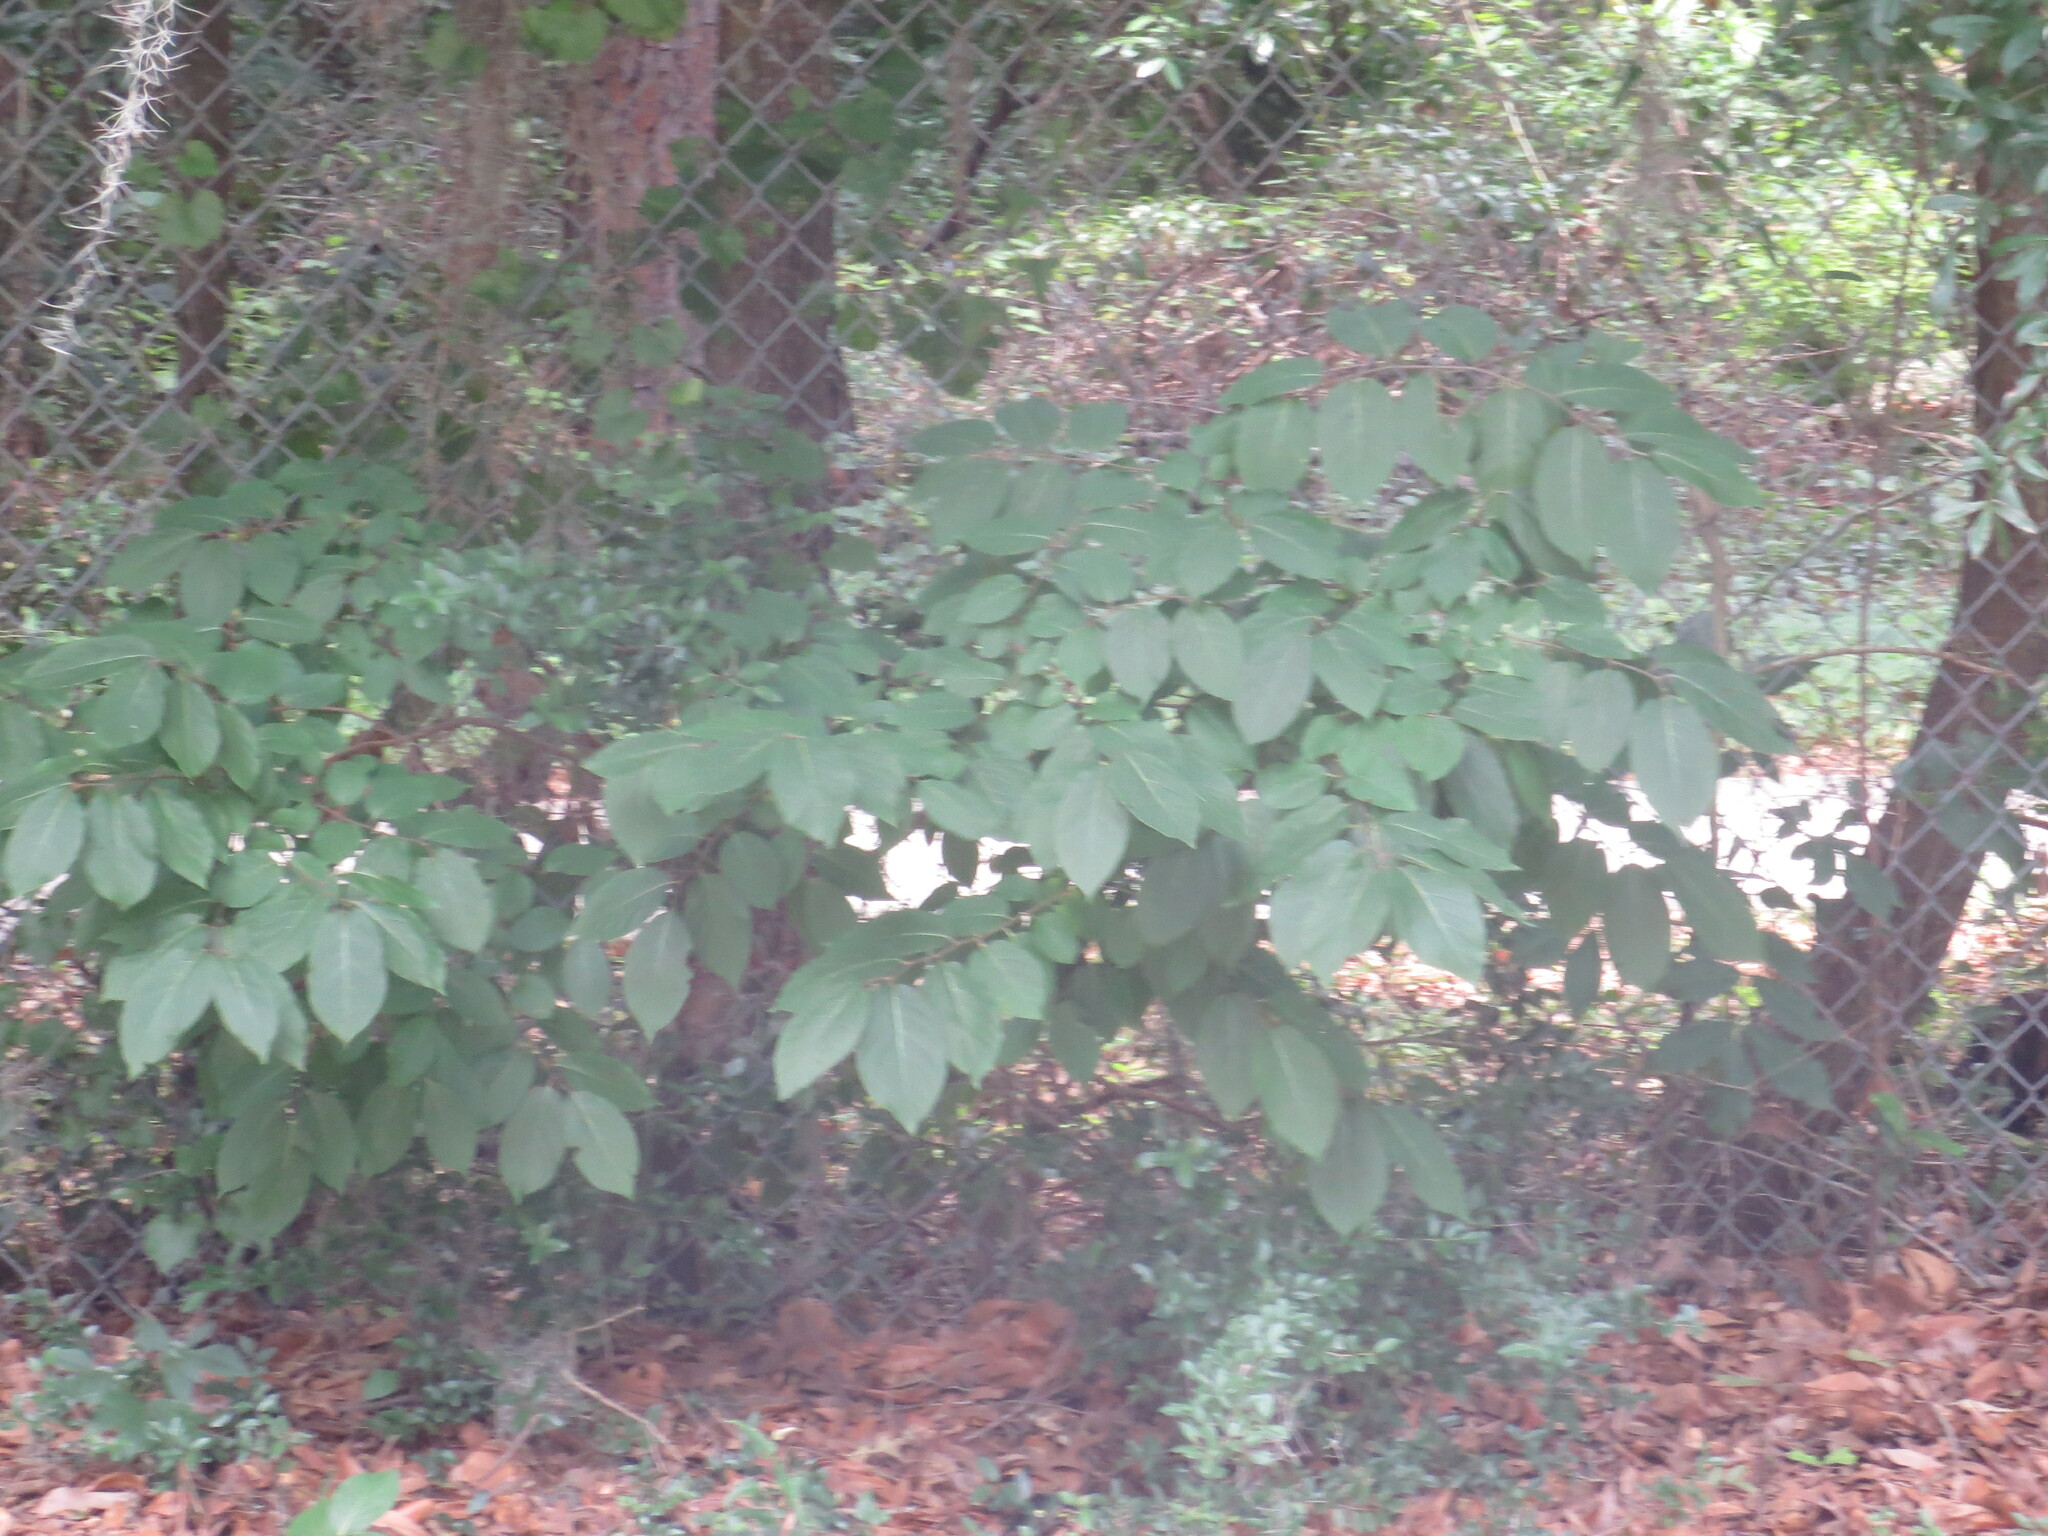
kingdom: Plantae
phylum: Tracheophyta
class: Magnoliopsida
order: Ericales
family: Ebenaceae
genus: Diospyros
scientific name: Diospyros virginiana
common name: Persimmon
